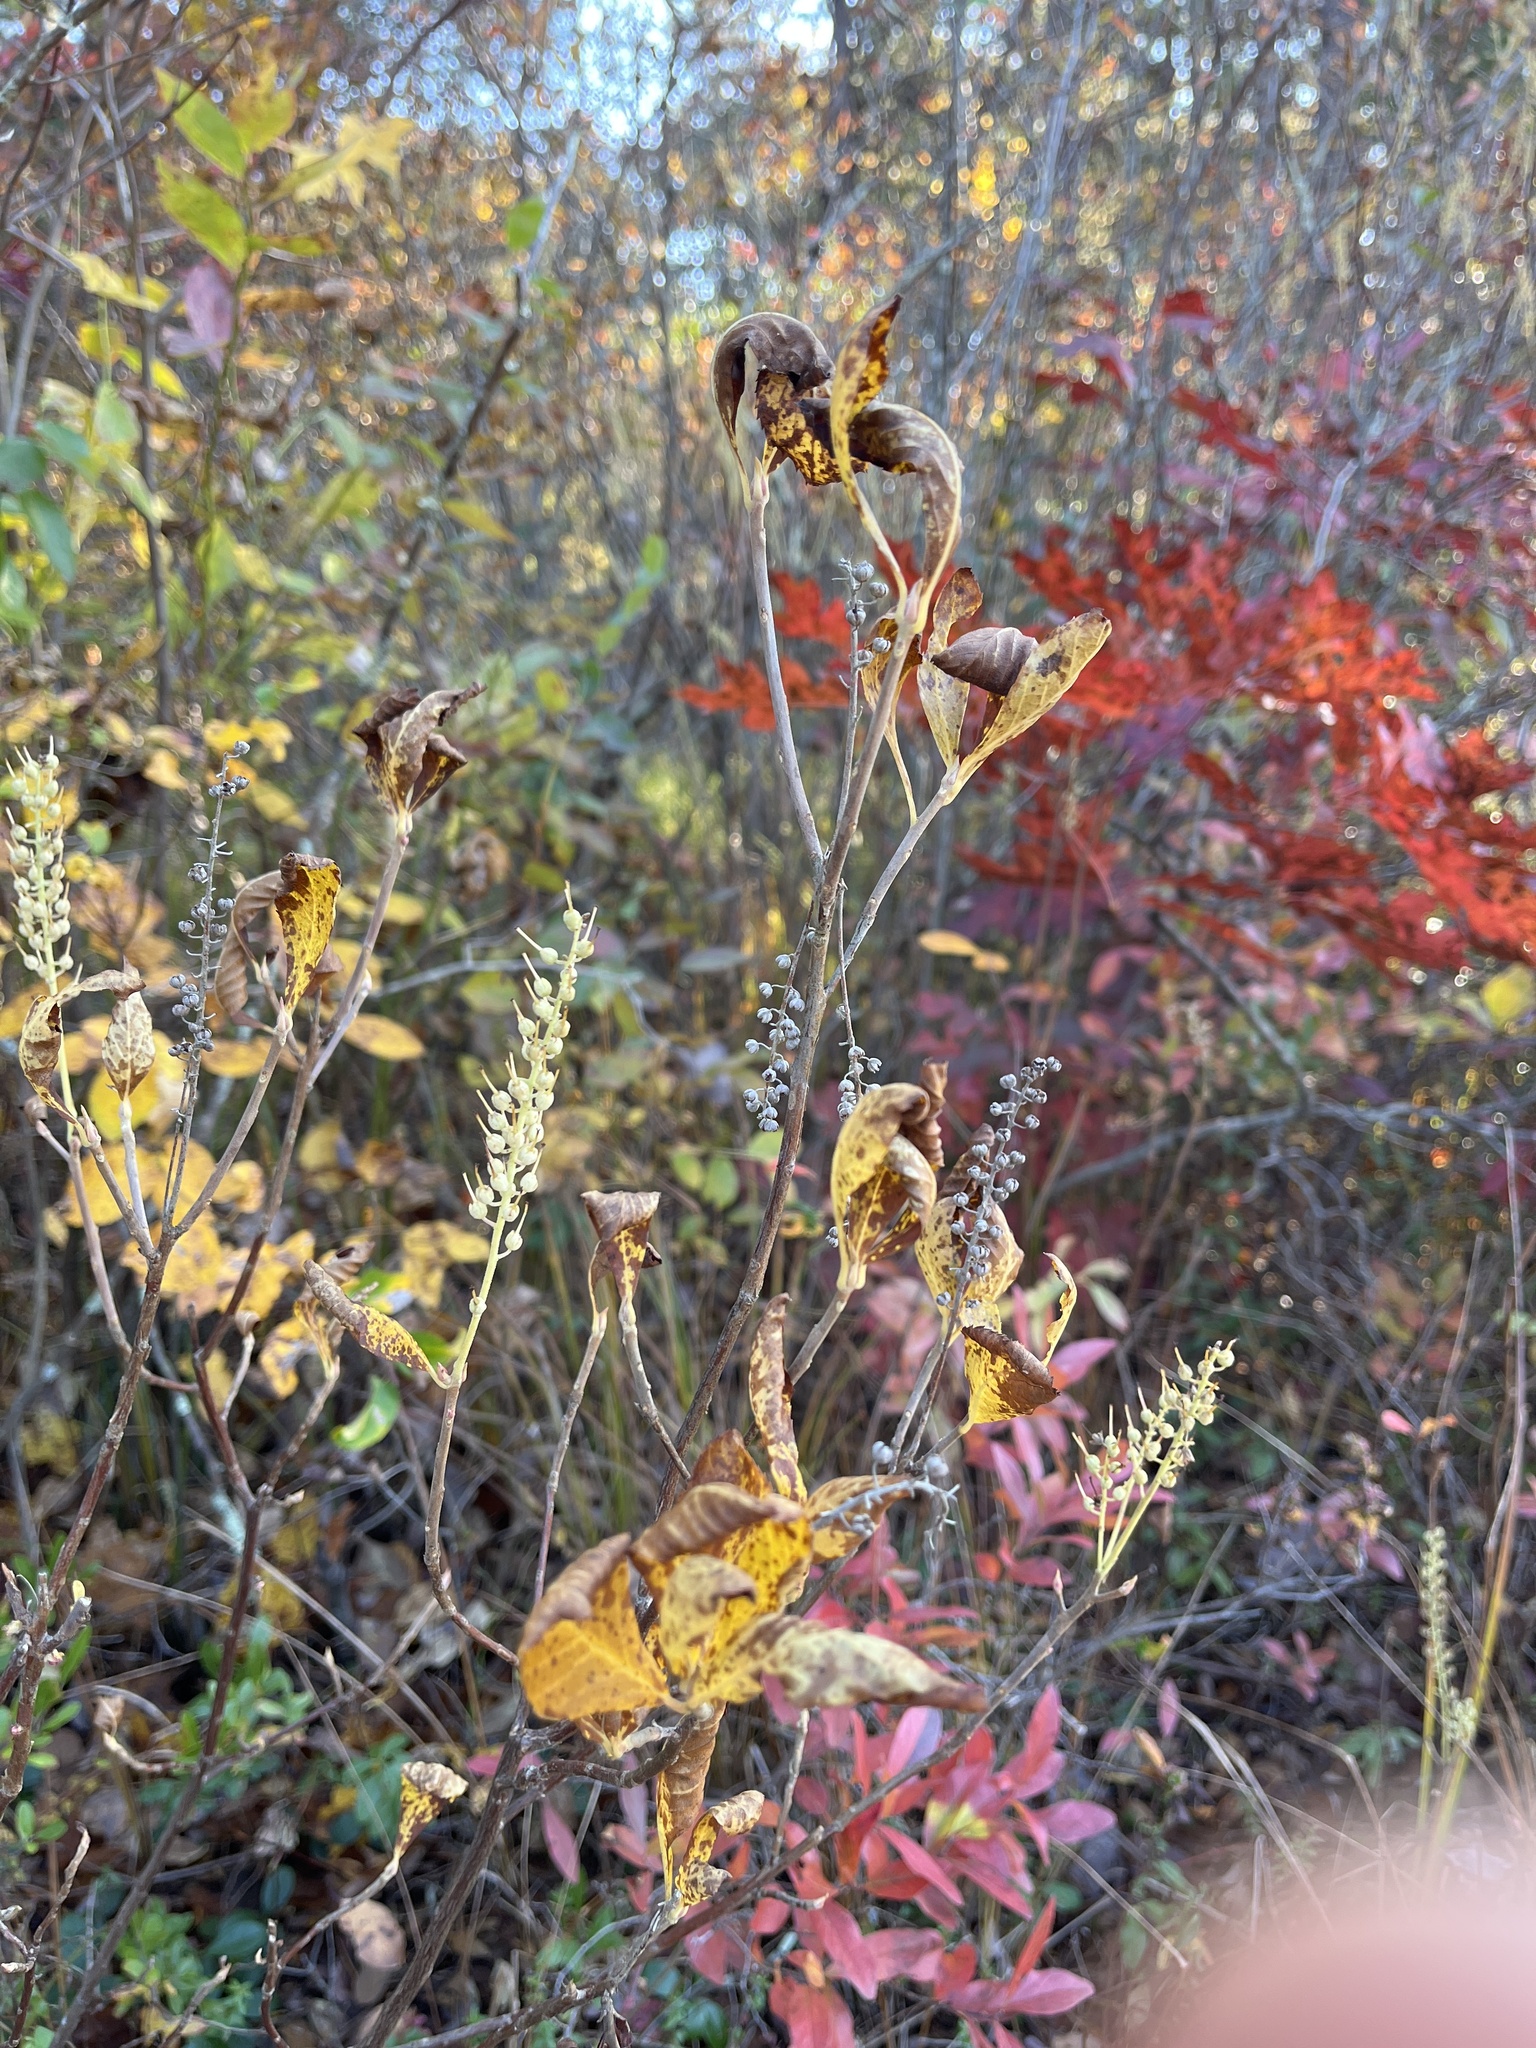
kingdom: Plantae
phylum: Tracheophyta
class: Magnoliopsida
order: Ericales
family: Clethraceae
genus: Clethra
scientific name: Clethra alnifolia
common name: Sweet pepperbush
